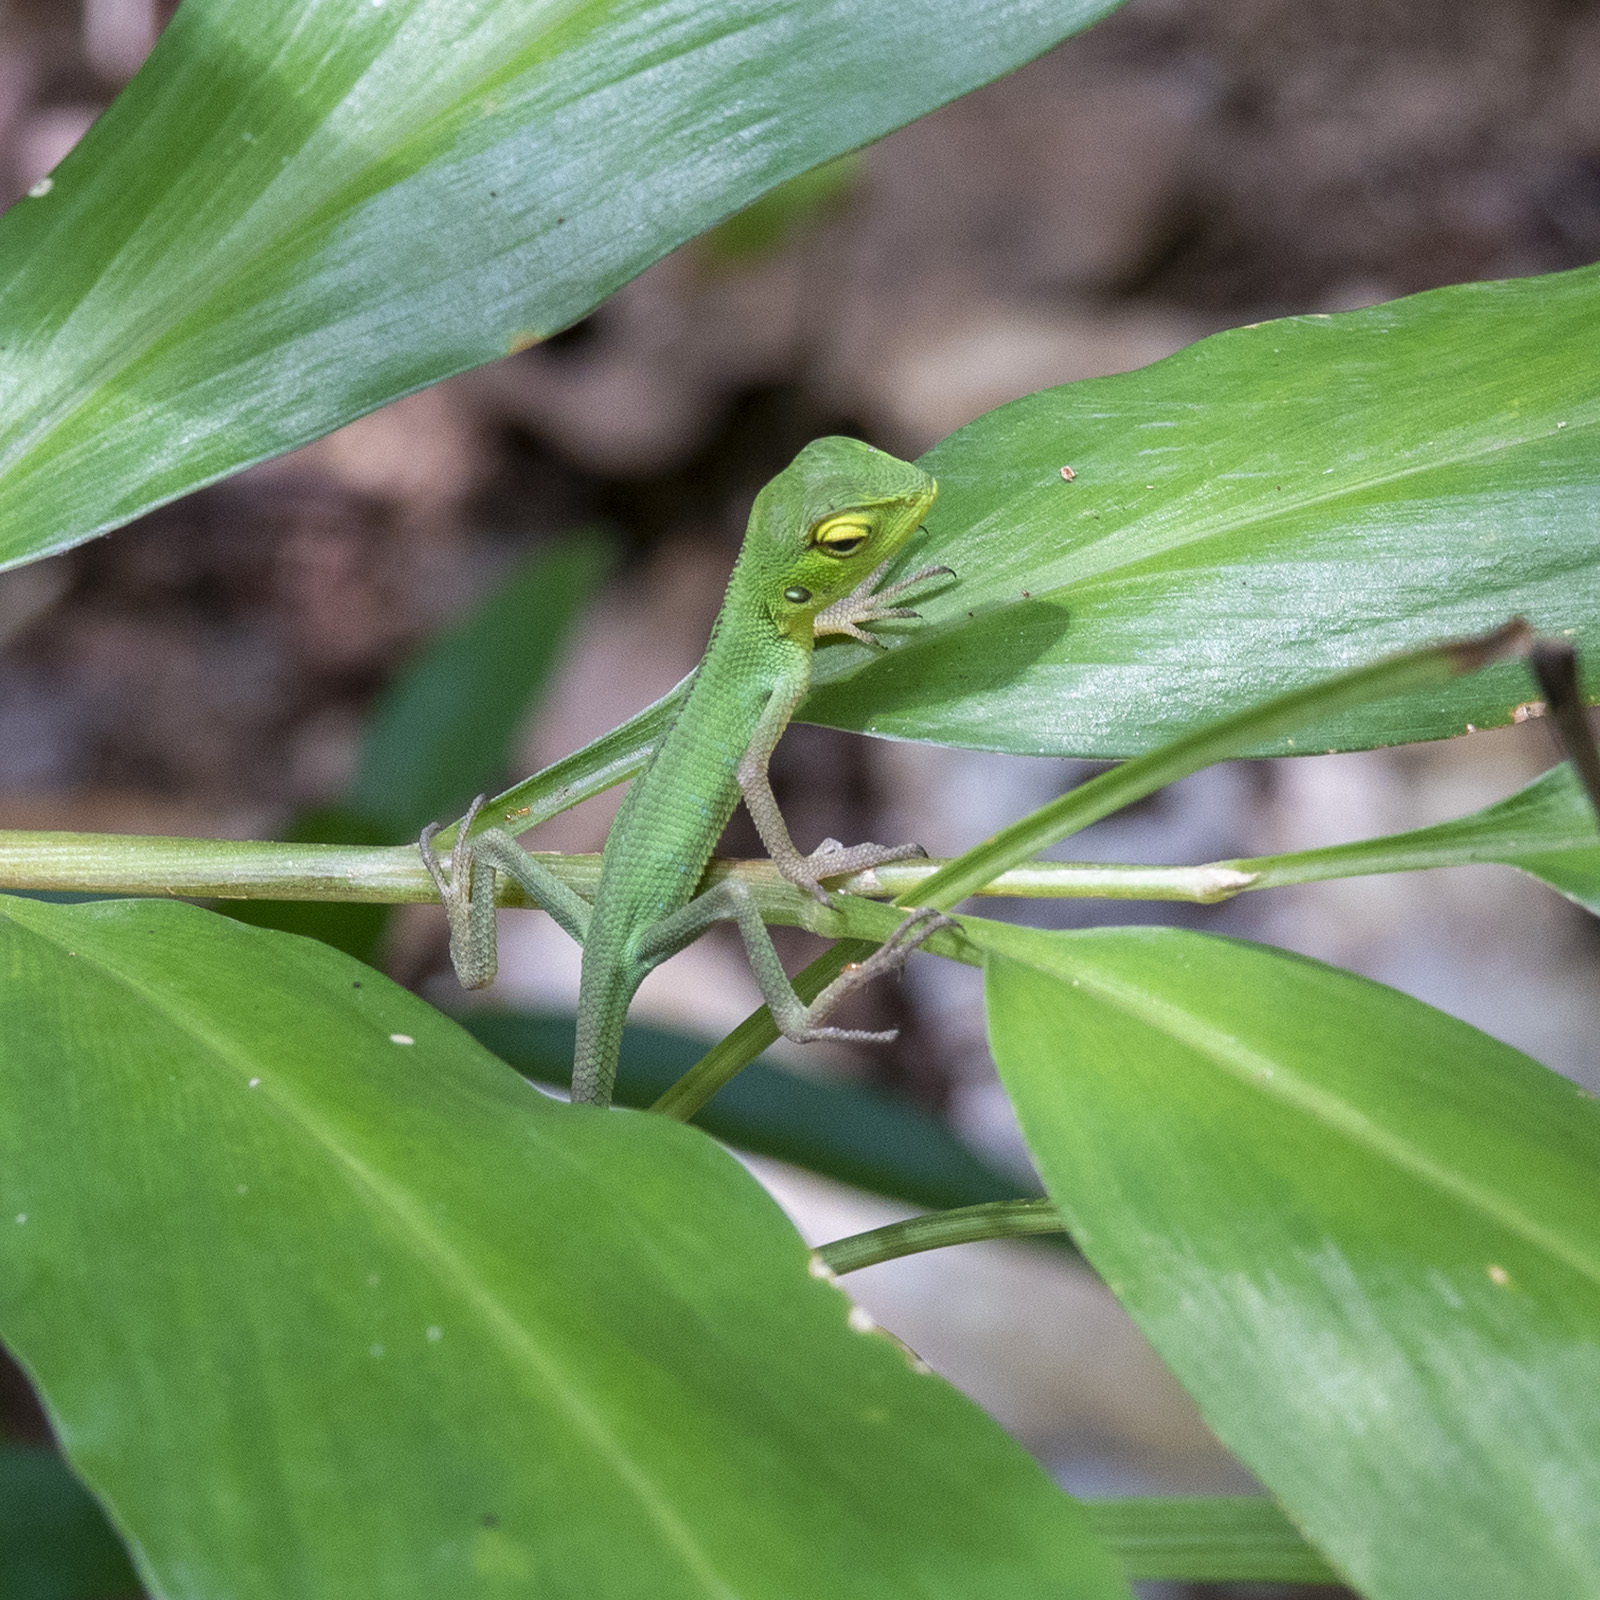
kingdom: Animalia
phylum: Chordata
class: Squamata
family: Agamidae
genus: Calotes
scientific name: Calotes calotes
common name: Common green forest lizard
